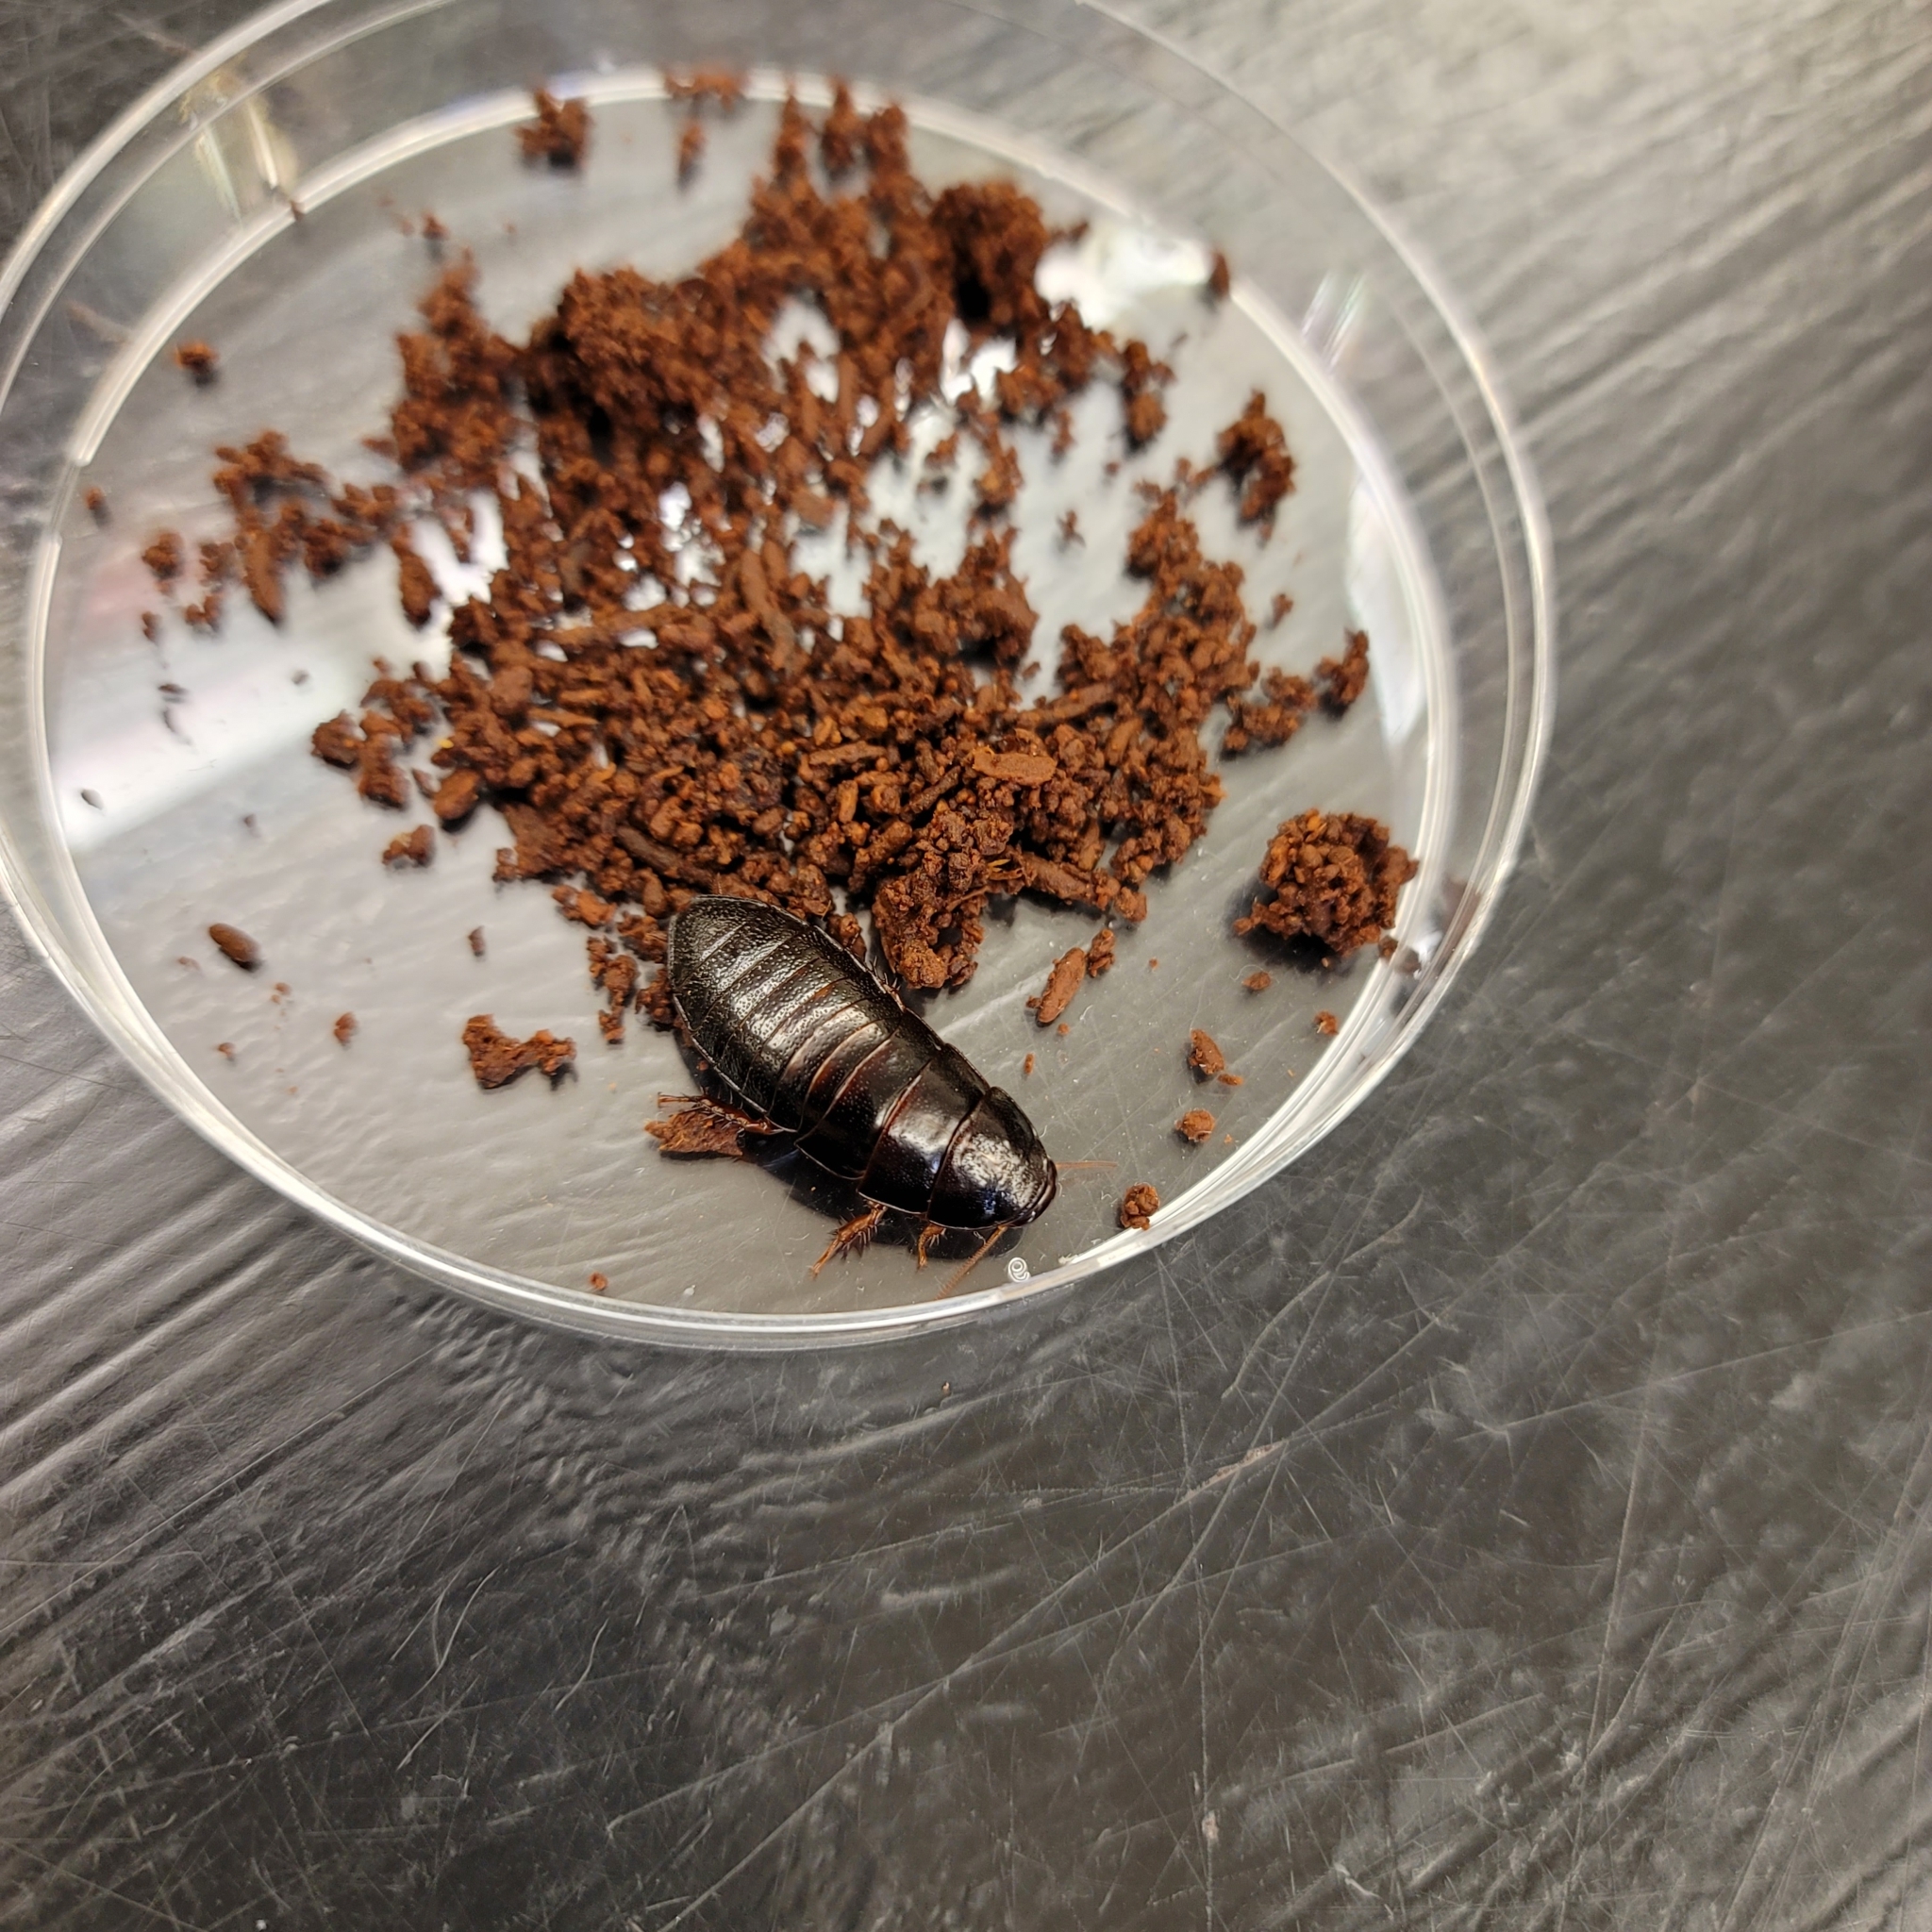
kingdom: Animalia
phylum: Arthropoda
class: Insecta
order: Blattodea
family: Cryptocercidae
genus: Cryptocercus
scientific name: Cryptocercus darwini
